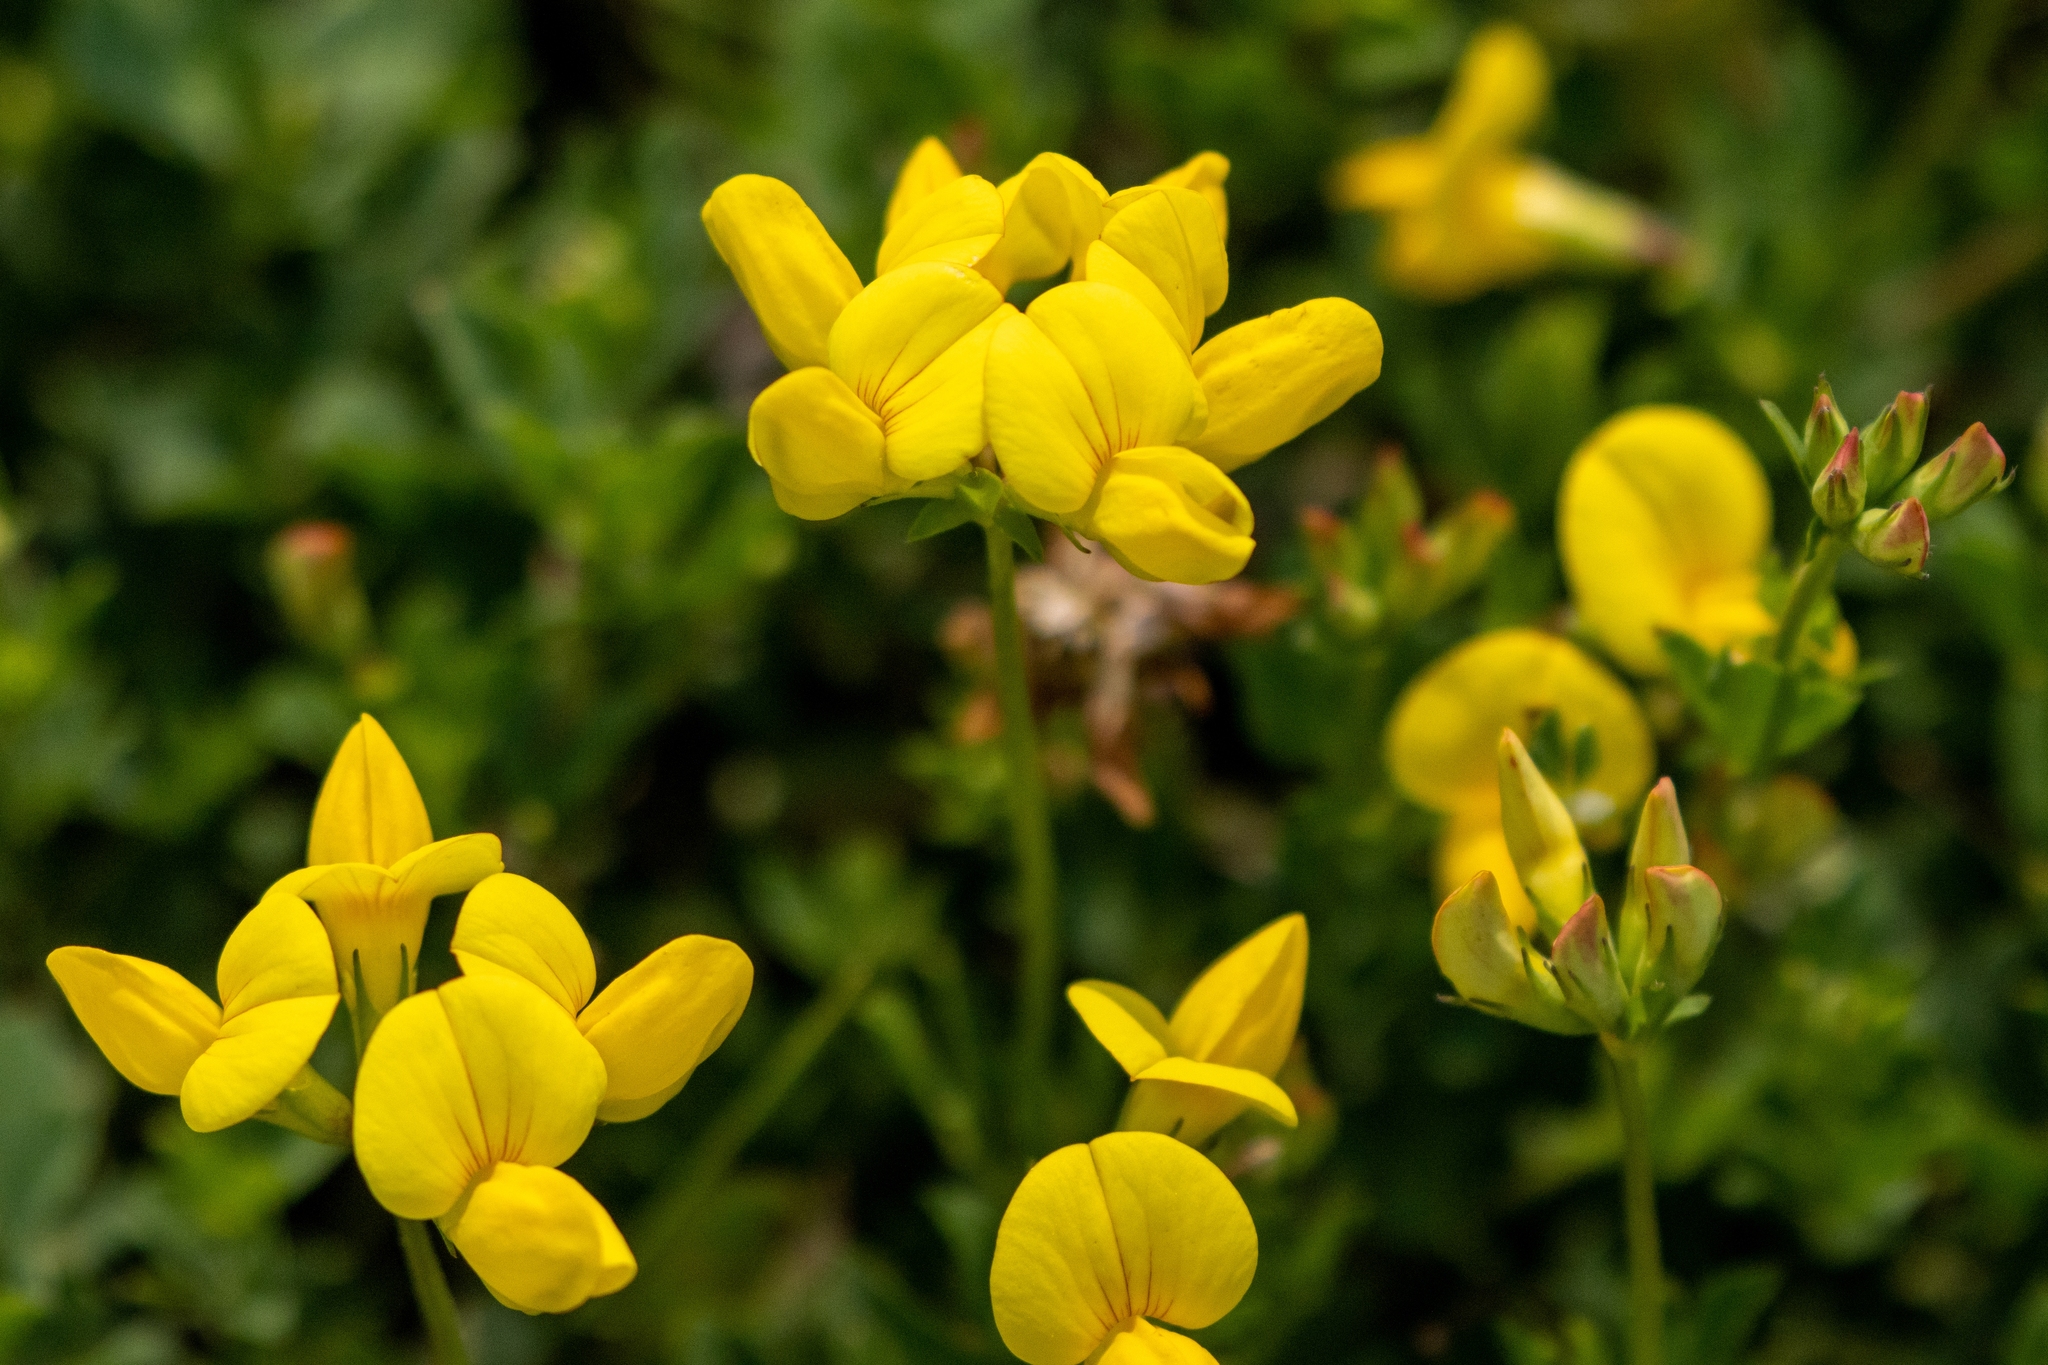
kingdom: Plantae
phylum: Tracheophyta
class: Magnoliopsida
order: Fabales
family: Fabaceae
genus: Lotus
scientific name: Lotus corniculatus
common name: Common bird's-foot-trefoil
